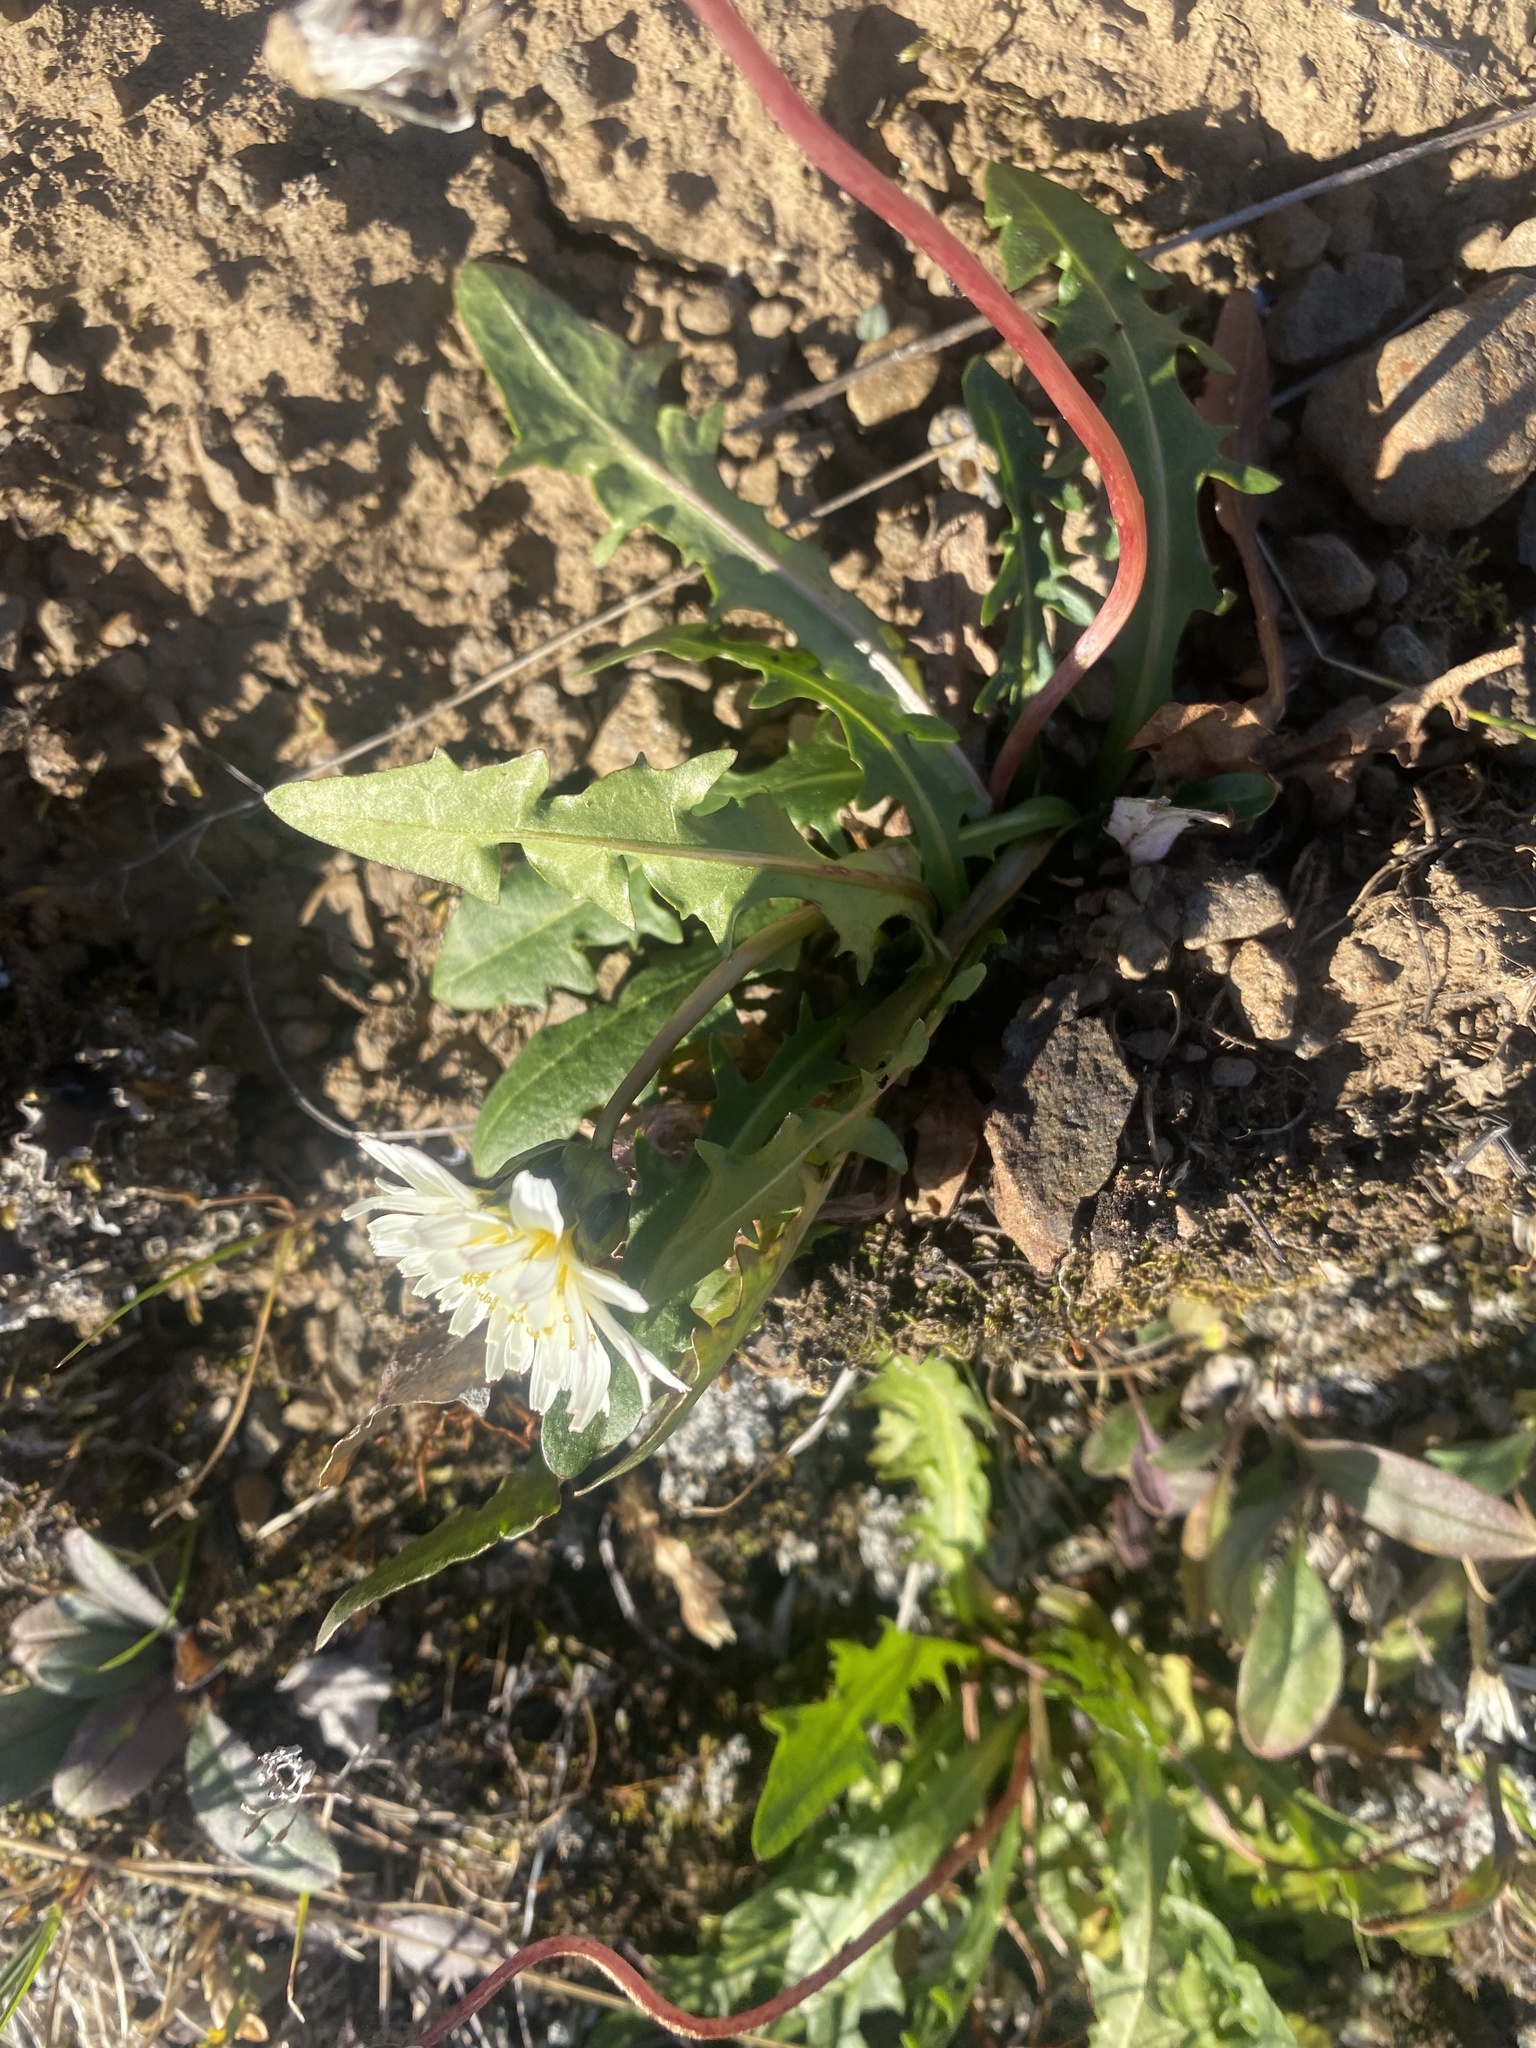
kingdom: Plantae
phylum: Tracheophyta
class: Magnoliopsida
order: Asterales
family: Asteraceae
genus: Taraxacum
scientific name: Taraxacum arcticum
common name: Arctic dandelion
